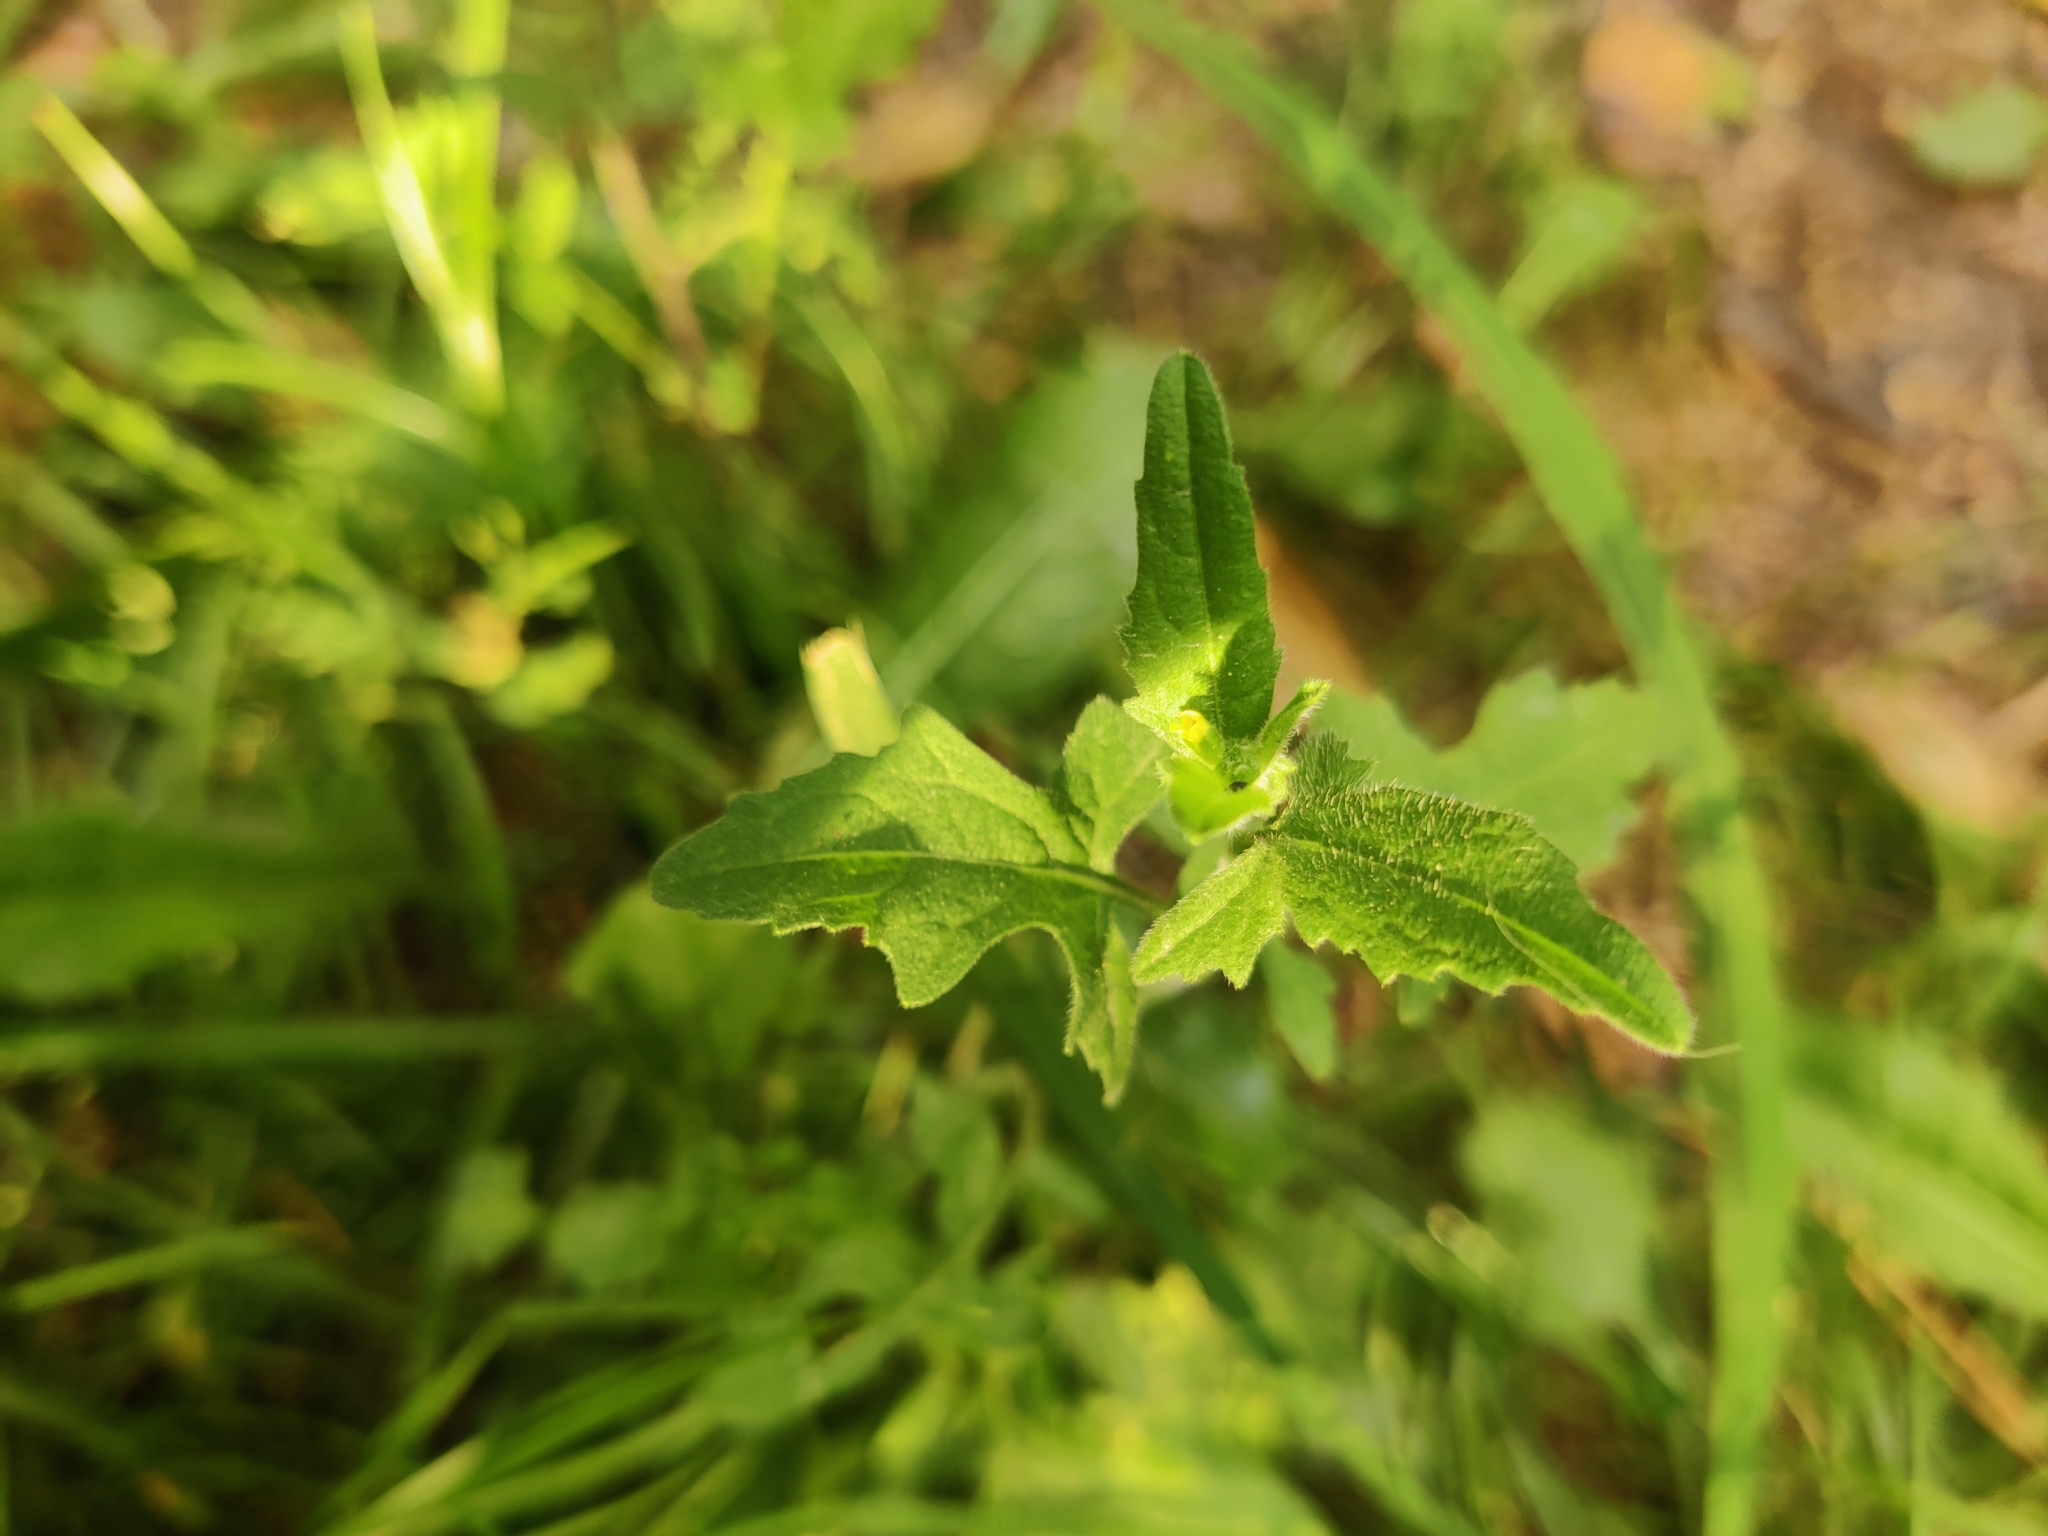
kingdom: Plantae
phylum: Tracheophyta
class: Magnoliopsida
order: Brassicales
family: Brassicaceae
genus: Sisymbrium
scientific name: Sisymbrium officinale
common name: Hedge mustard
